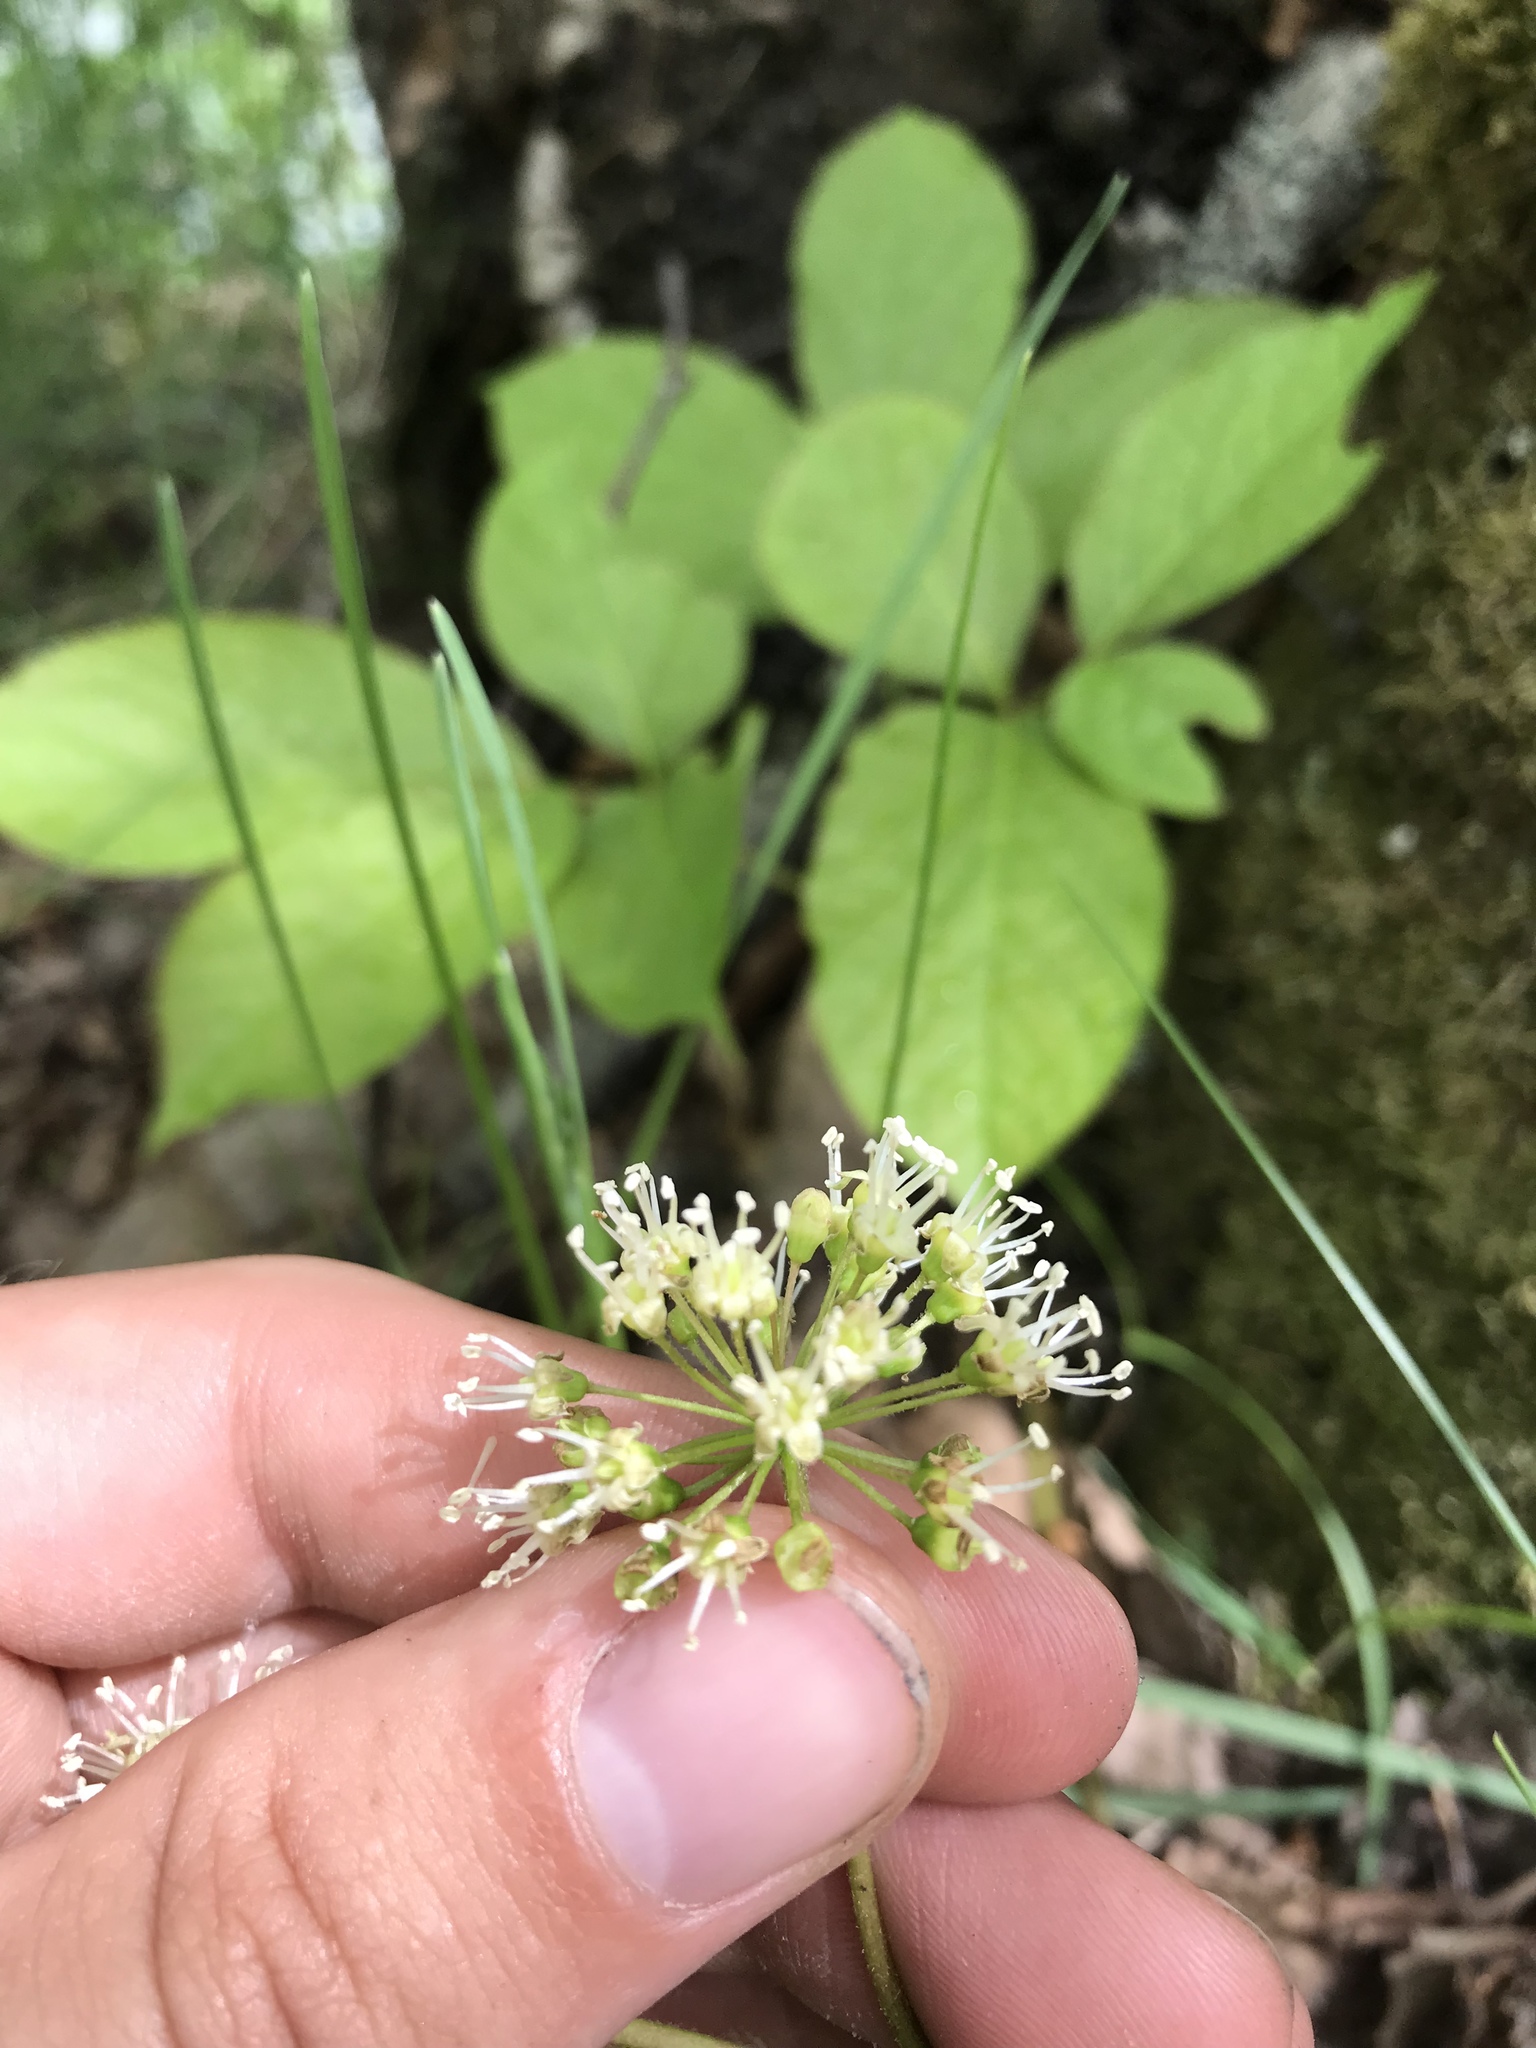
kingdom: Plantae
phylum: Tracheophyta
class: Magnoliopsida
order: Apiales
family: Araliaceae
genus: Aralia
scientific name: Aralia nudicaulis
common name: Wild sarsaparilla
